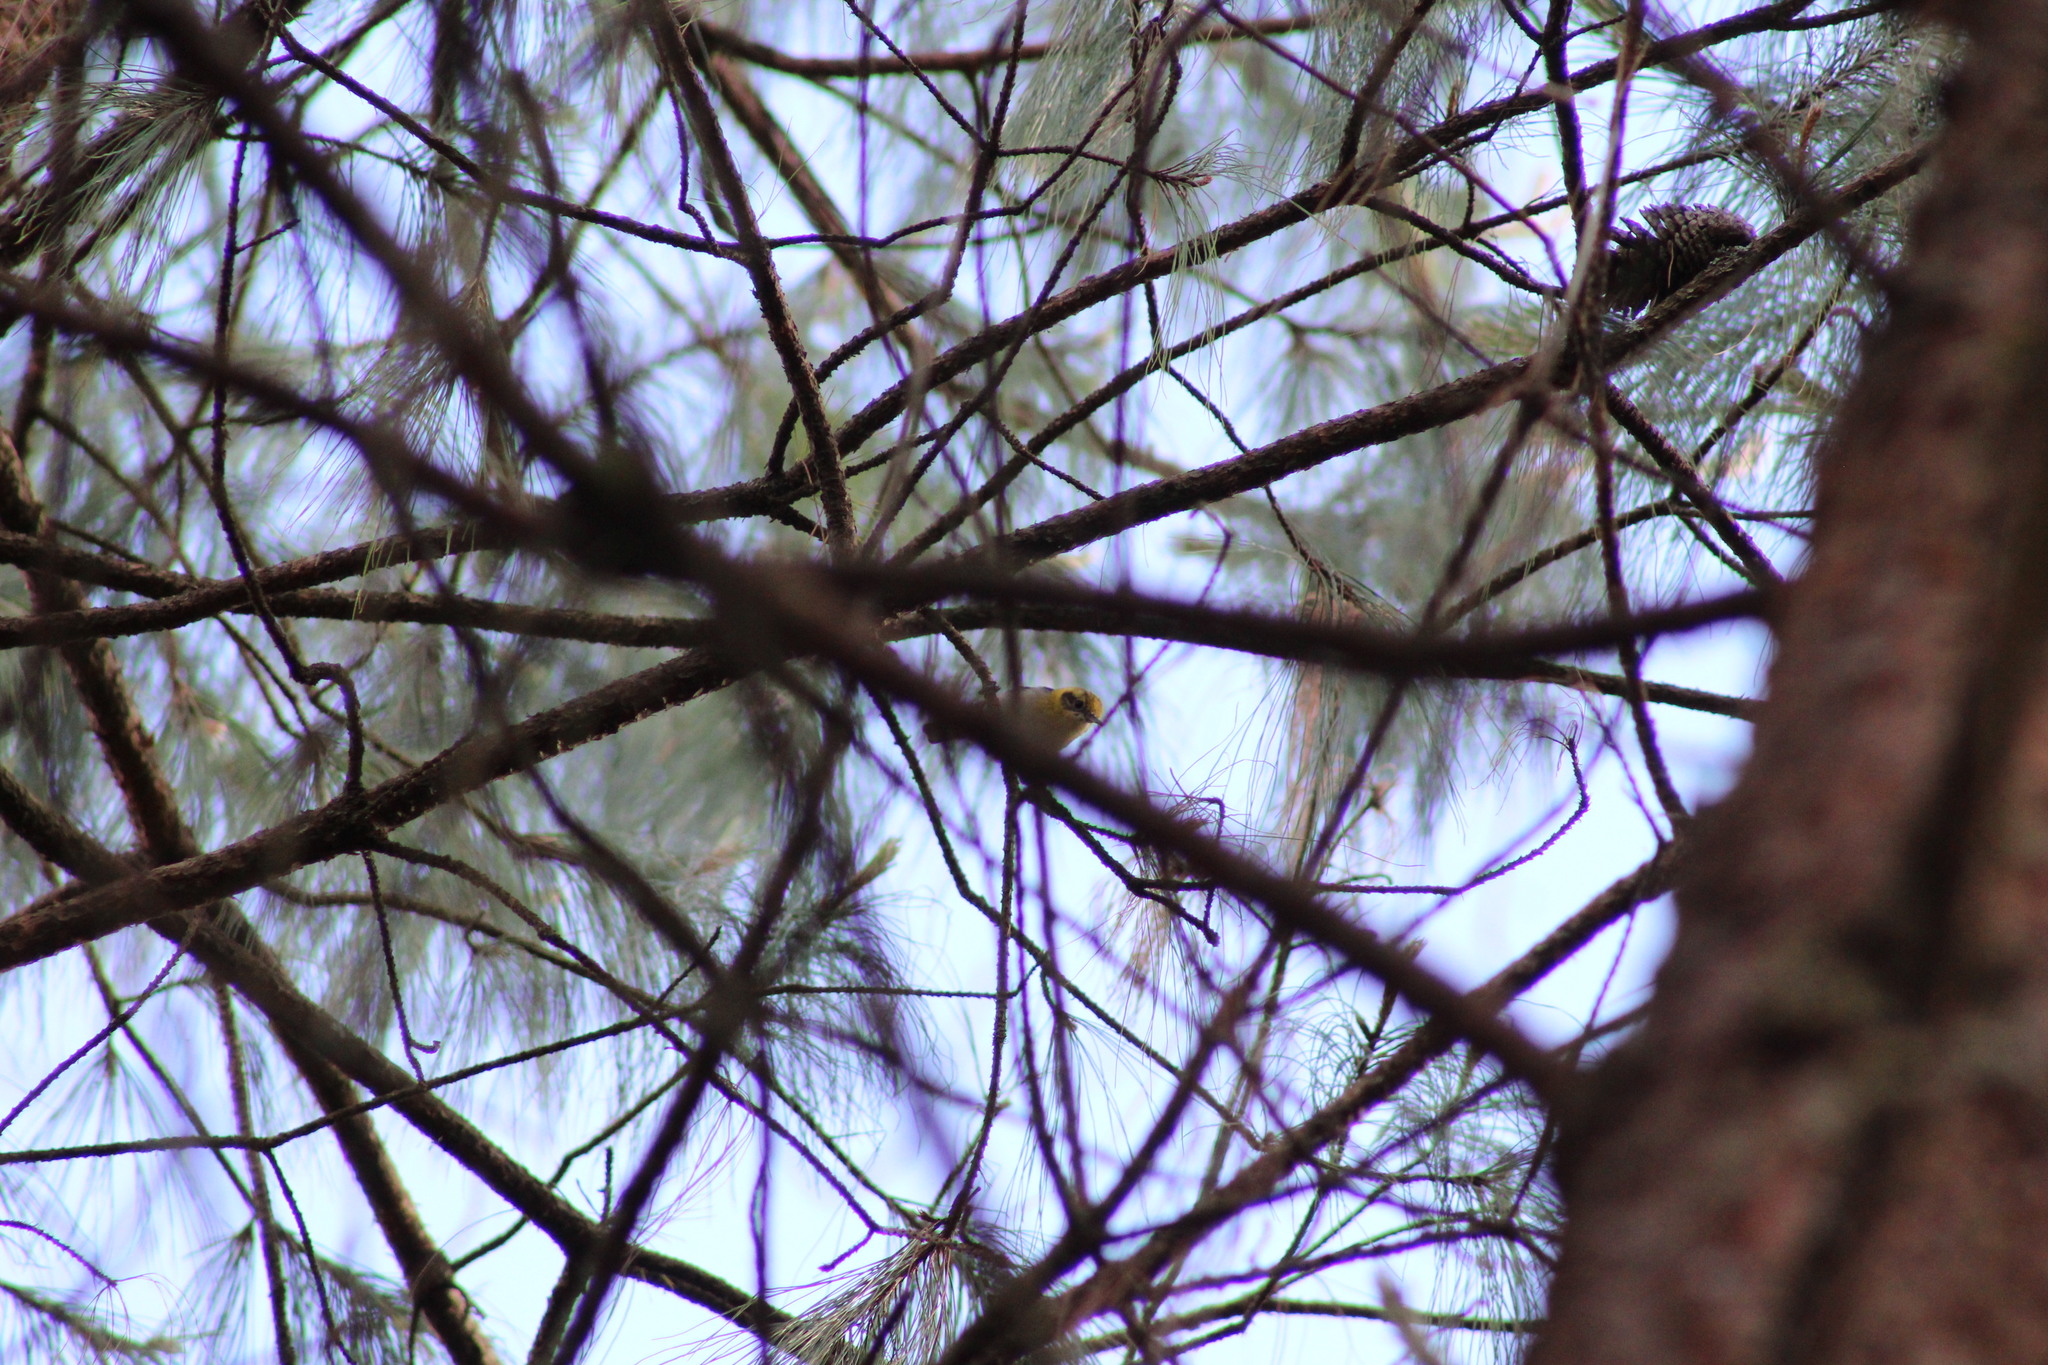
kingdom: Animalia
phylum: Chordata
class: Aves
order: Passeriformes
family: Peucedramidae
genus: Peucedramus
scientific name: Peucedramus taeniatus
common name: Olive warbler
